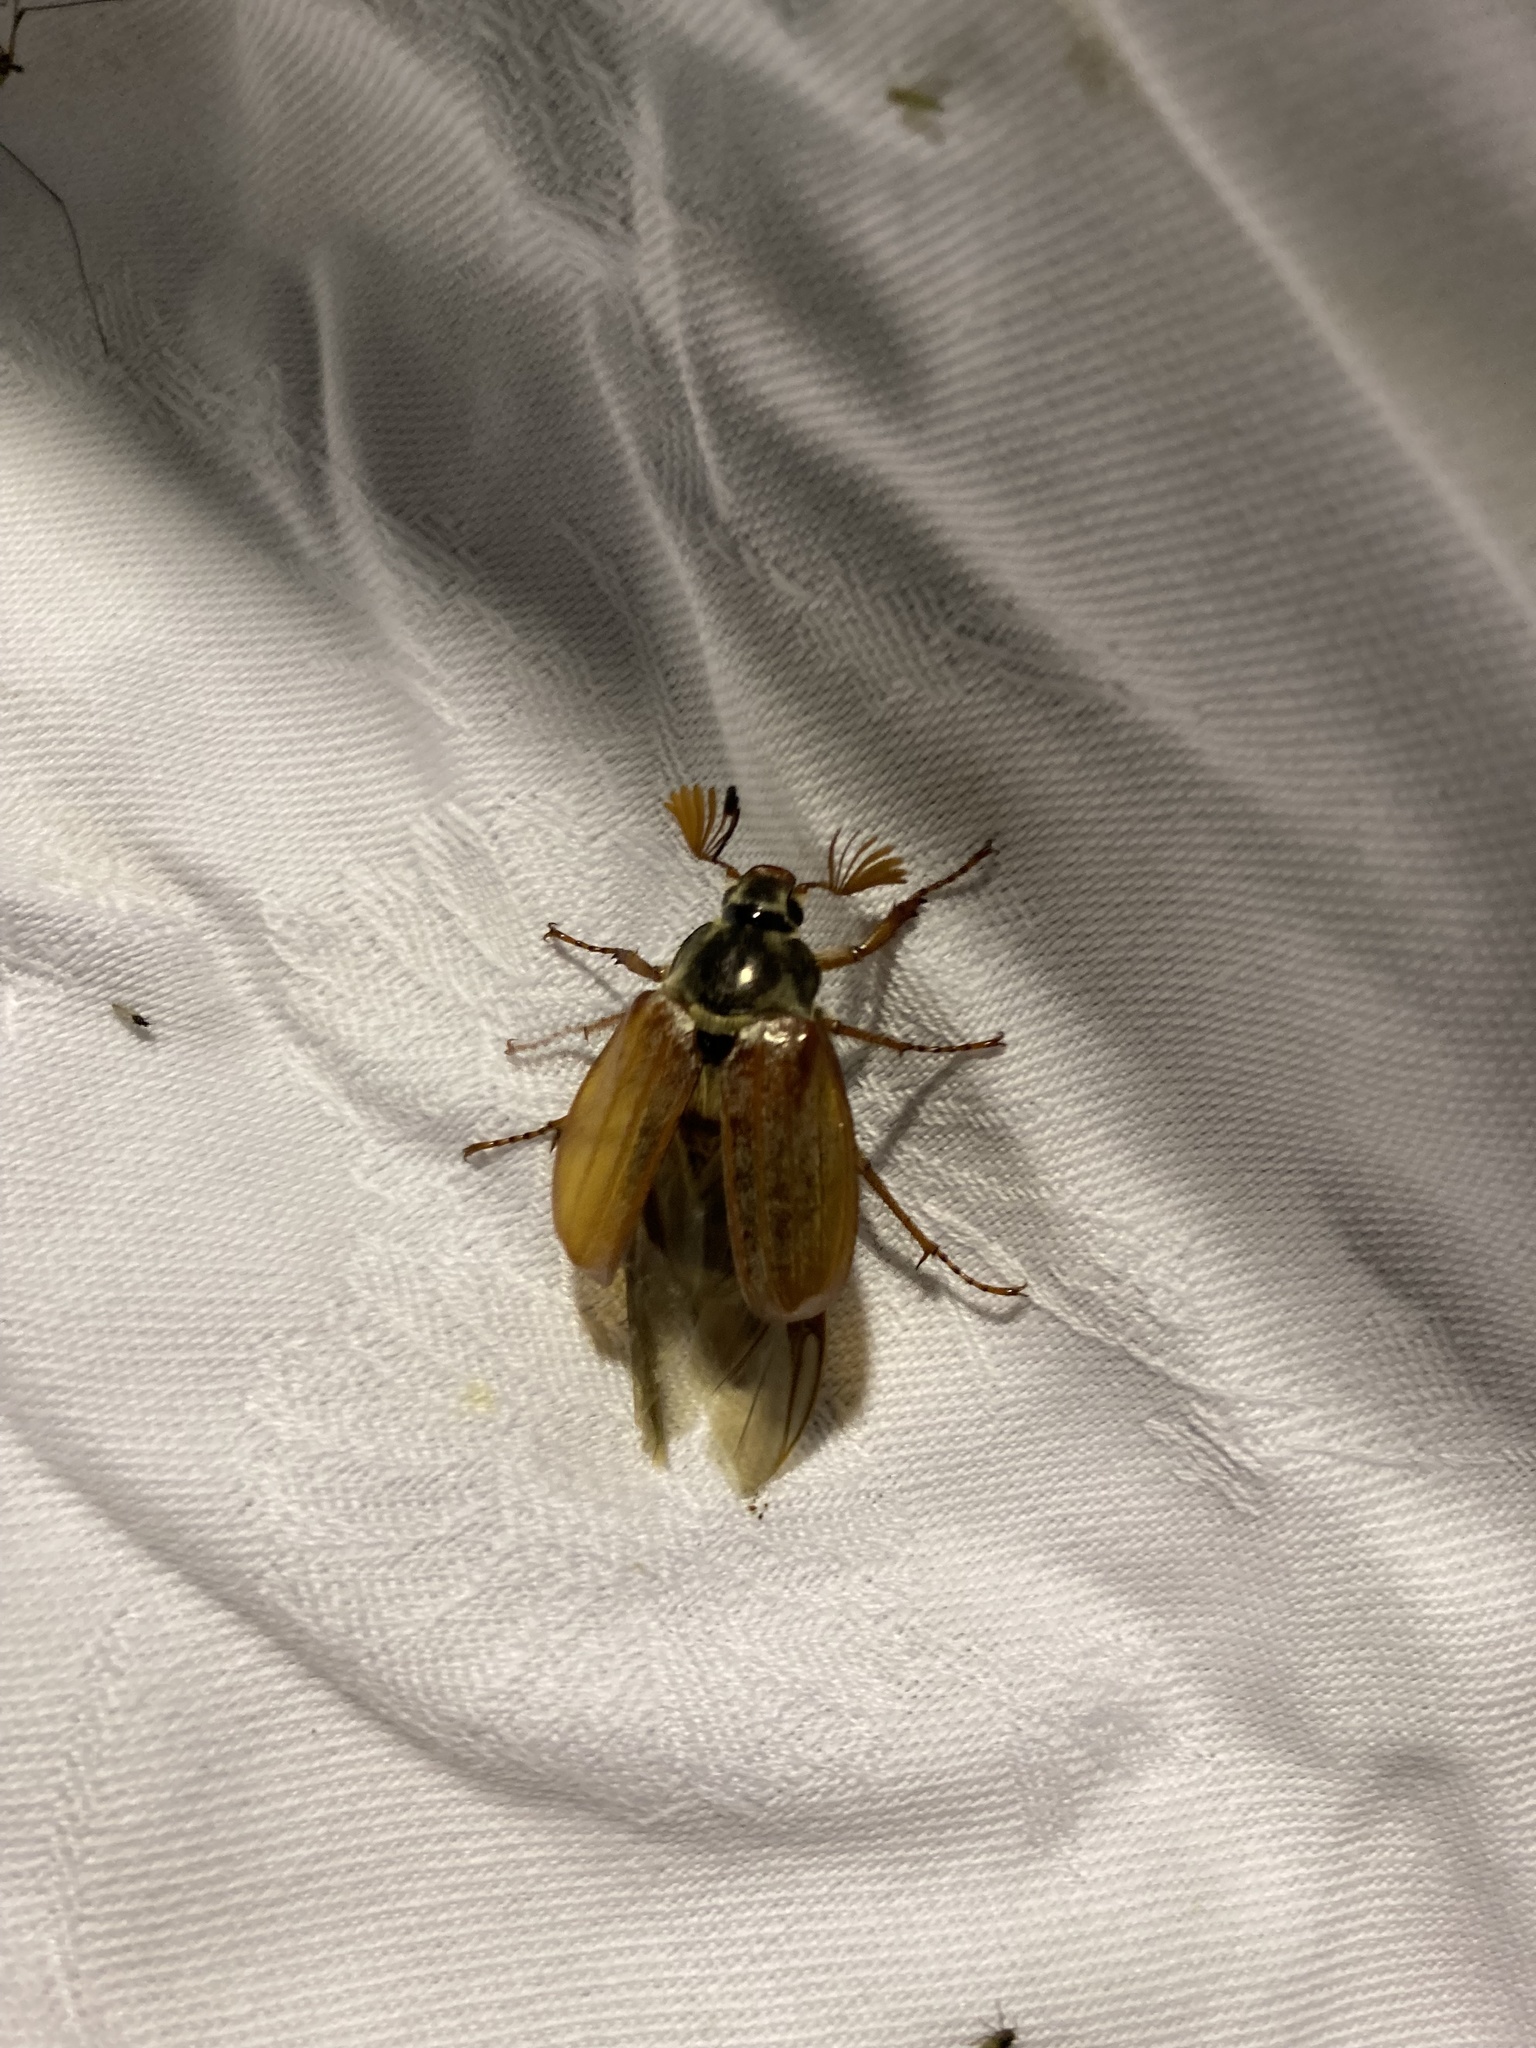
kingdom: Animalia
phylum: Arthropoda
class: Insecta
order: Coleoptera
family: Scarabaeidae
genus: Melolontha
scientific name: Melolontha melolontha
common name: Cockchafer maybeetle
